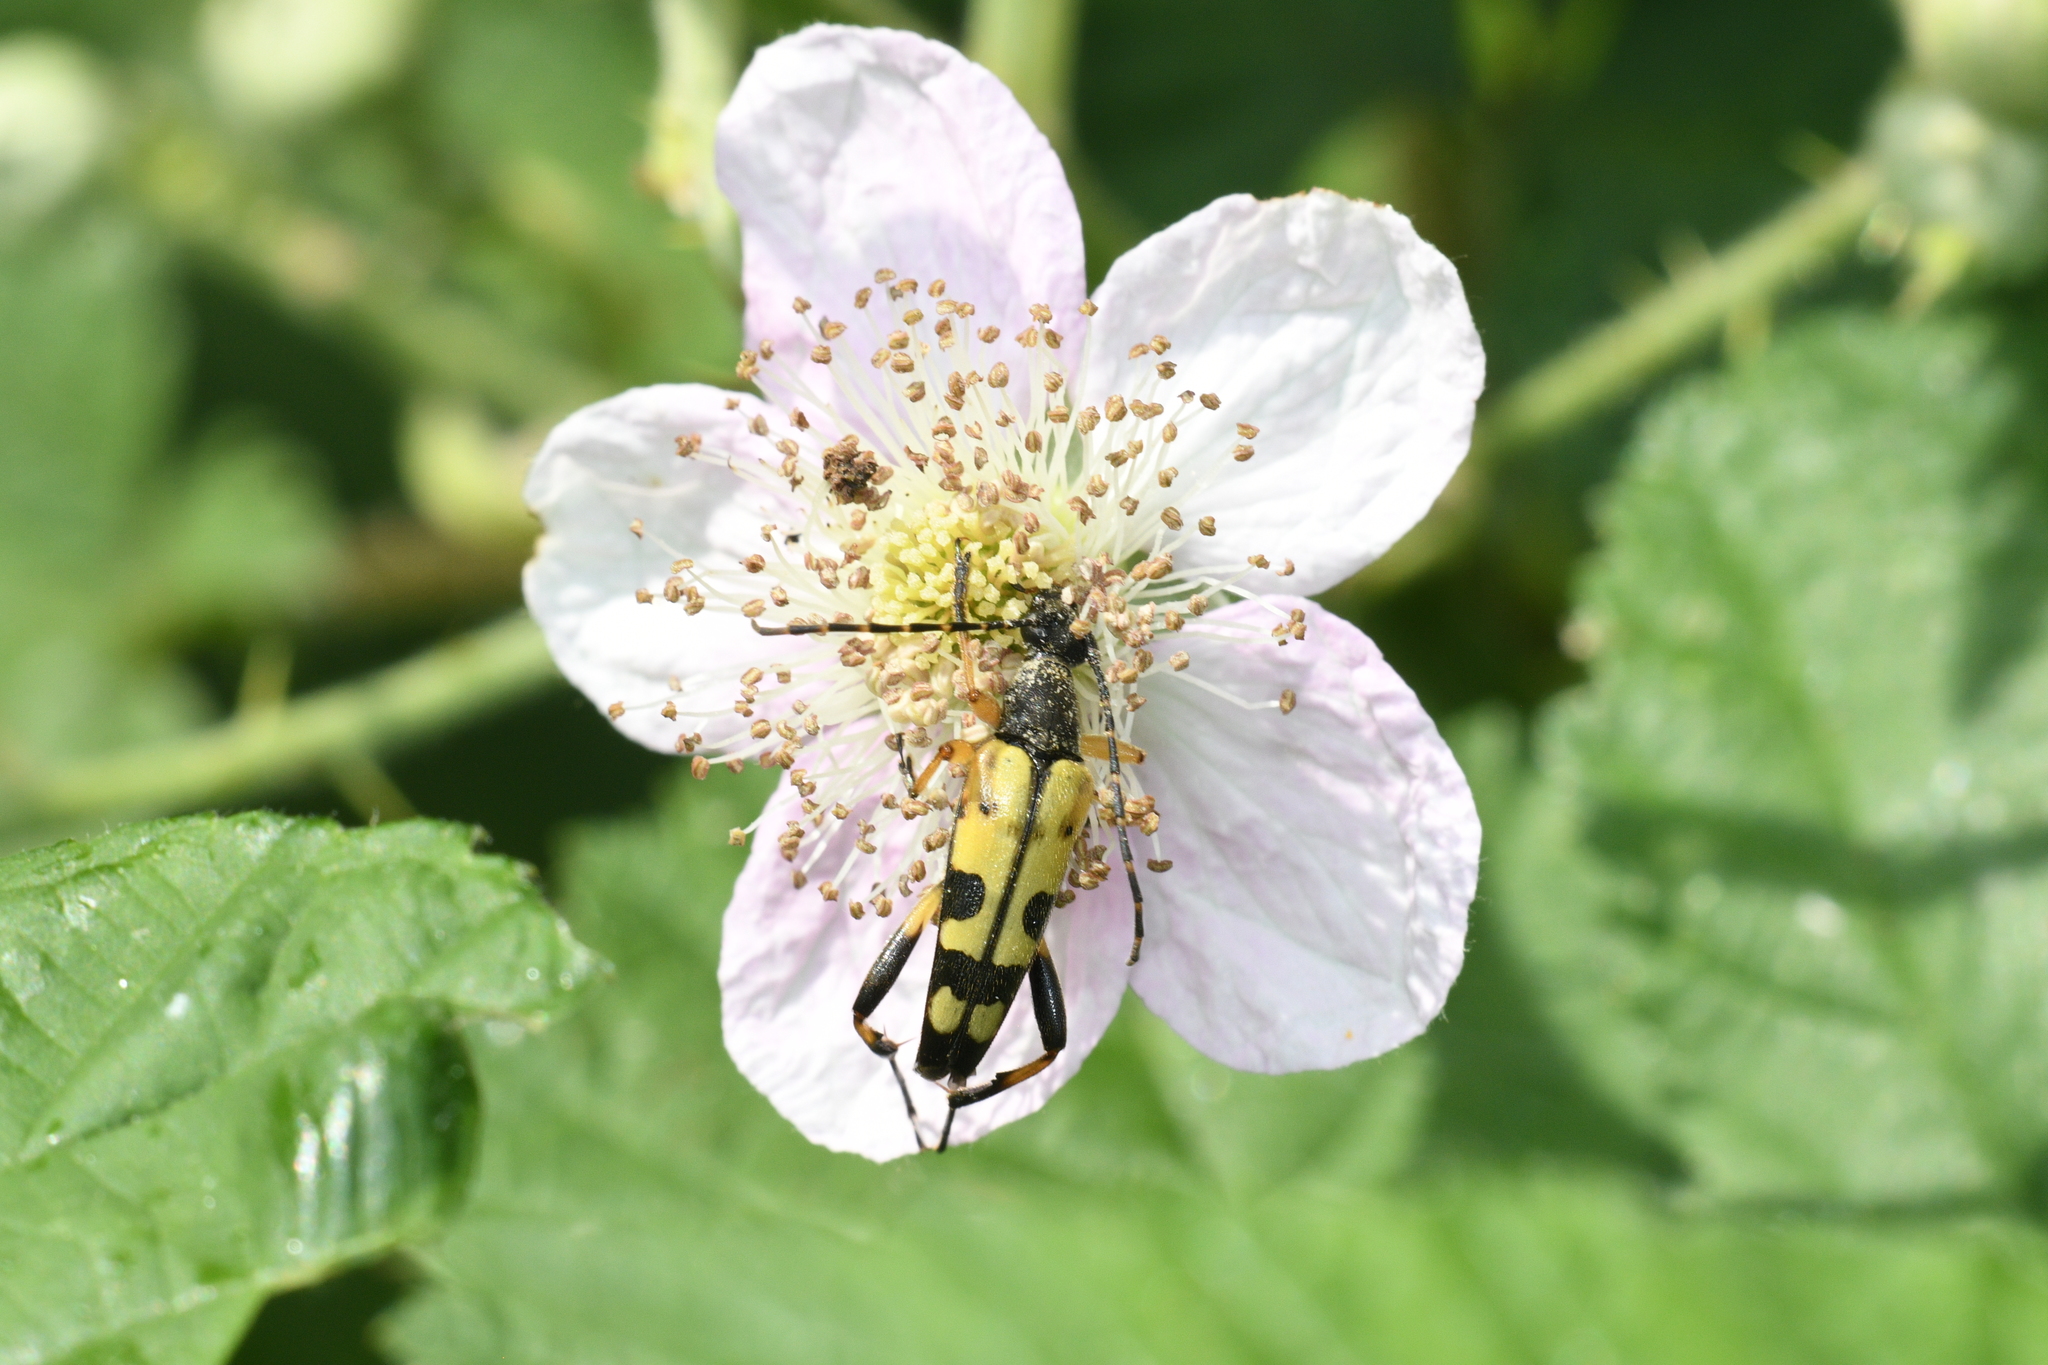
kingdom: Animalia
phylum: Arthropoda
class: Insecta
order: Coleoptera
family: Cerambycidae
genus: Rutpela
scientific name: Rutpela maculata
